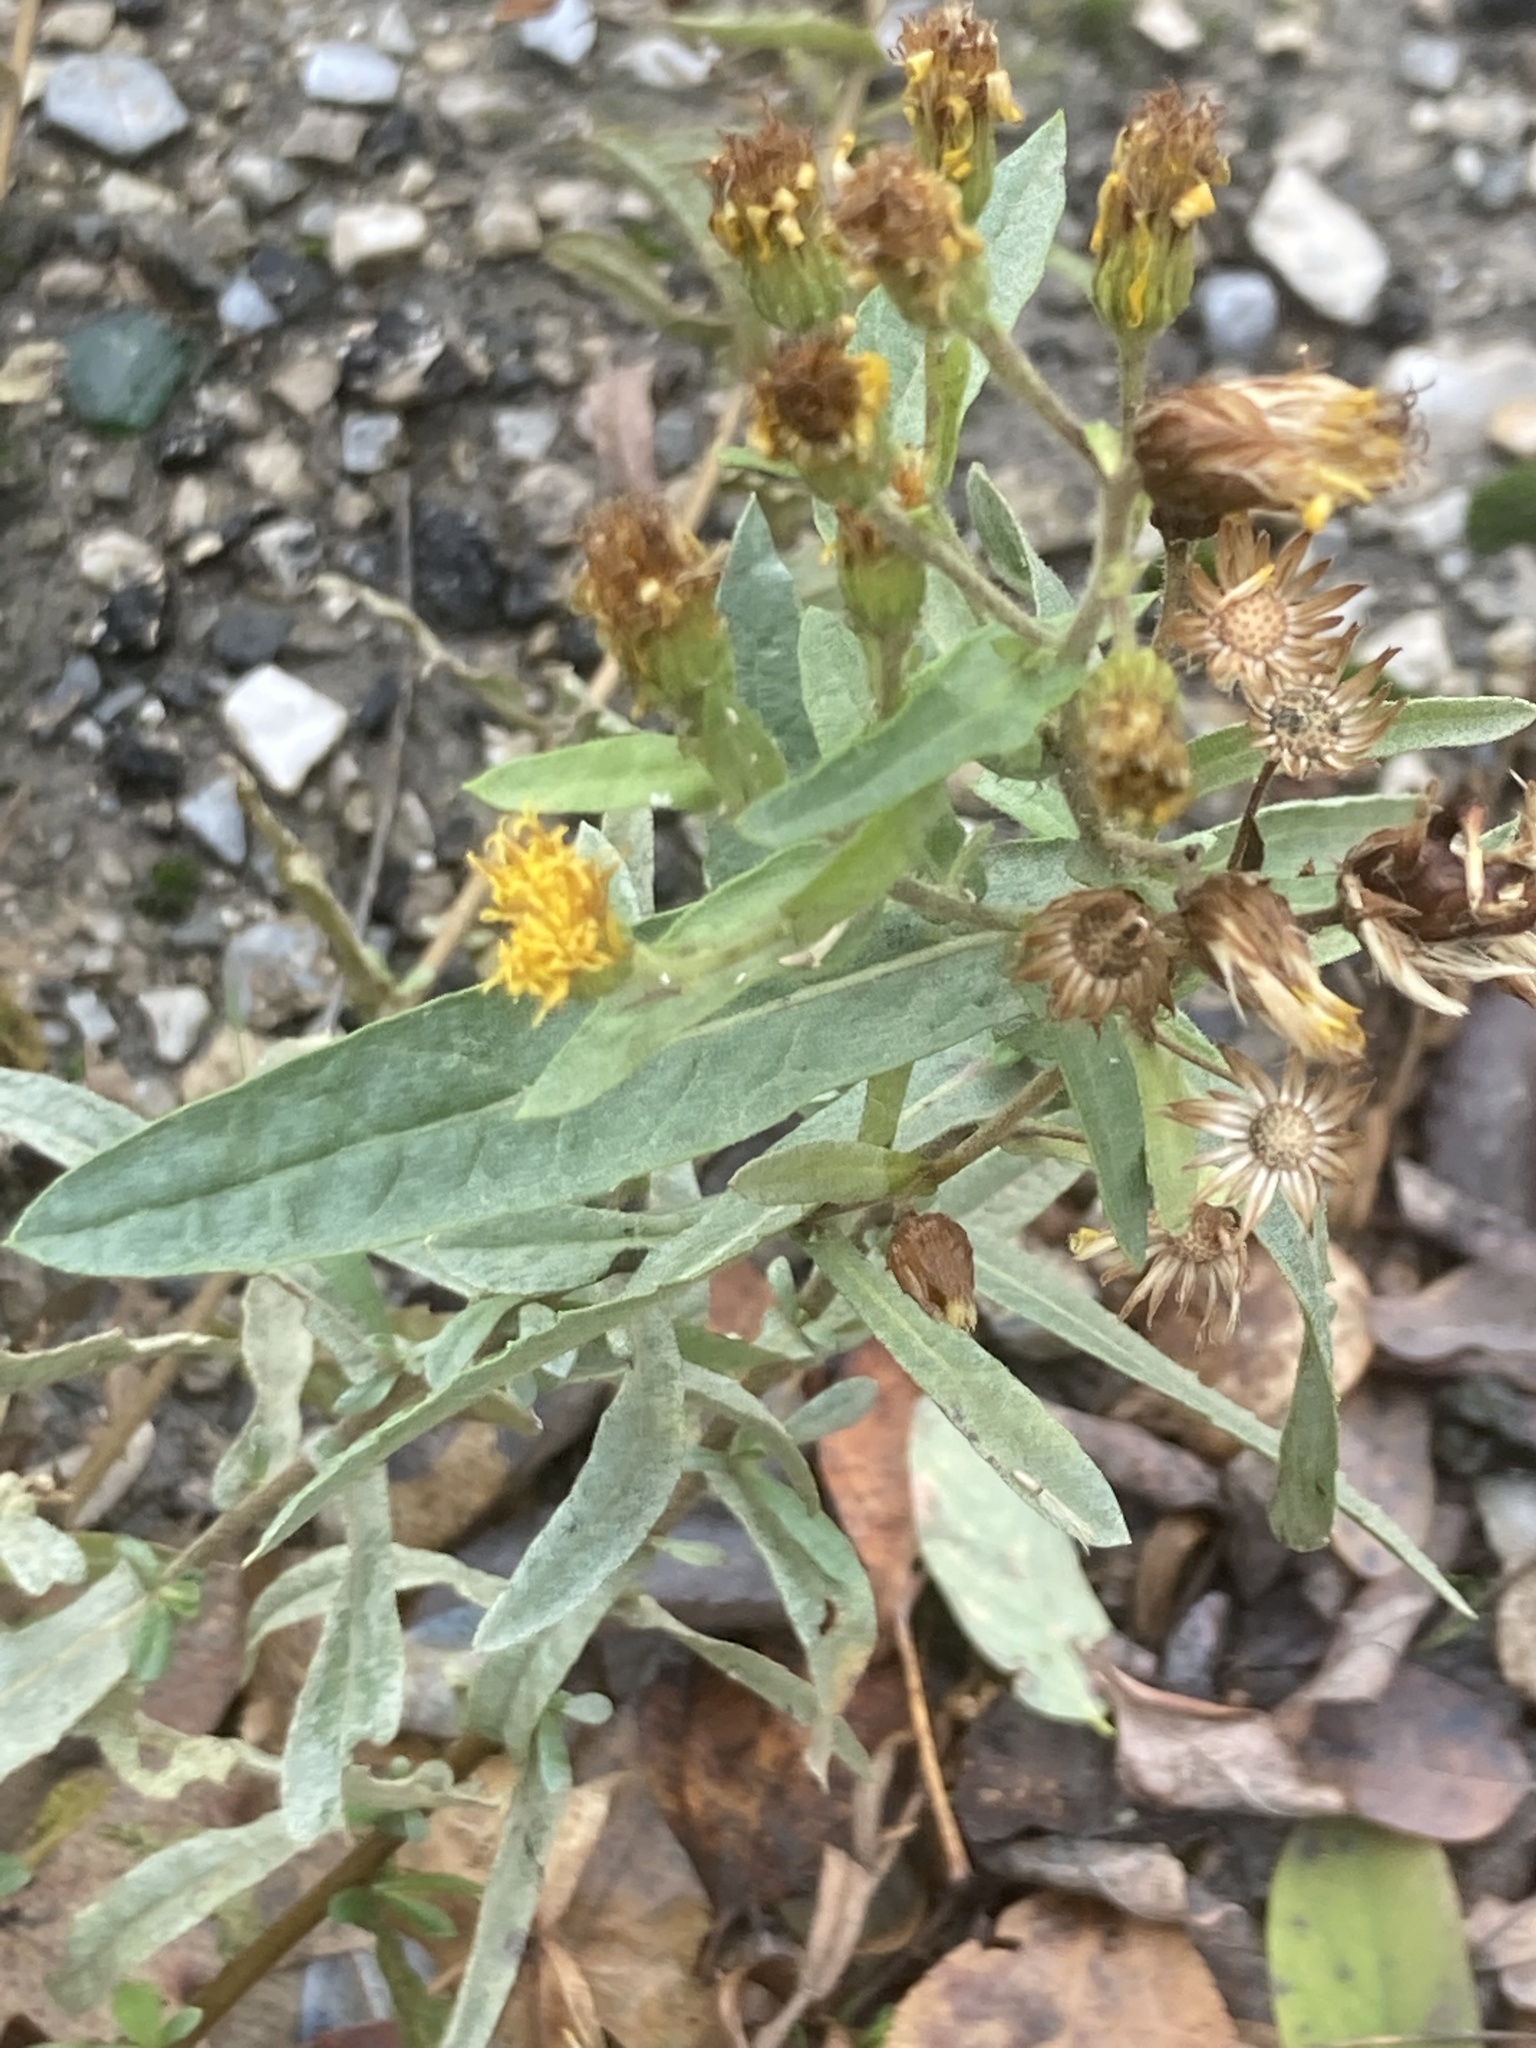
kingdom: Plantae
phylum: Tracheophyta
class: Magnoliopsida
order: Asterales
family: Asteraceae
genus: Dittrichia
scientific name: Dittrichia viscosa
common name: Woody fleabane
